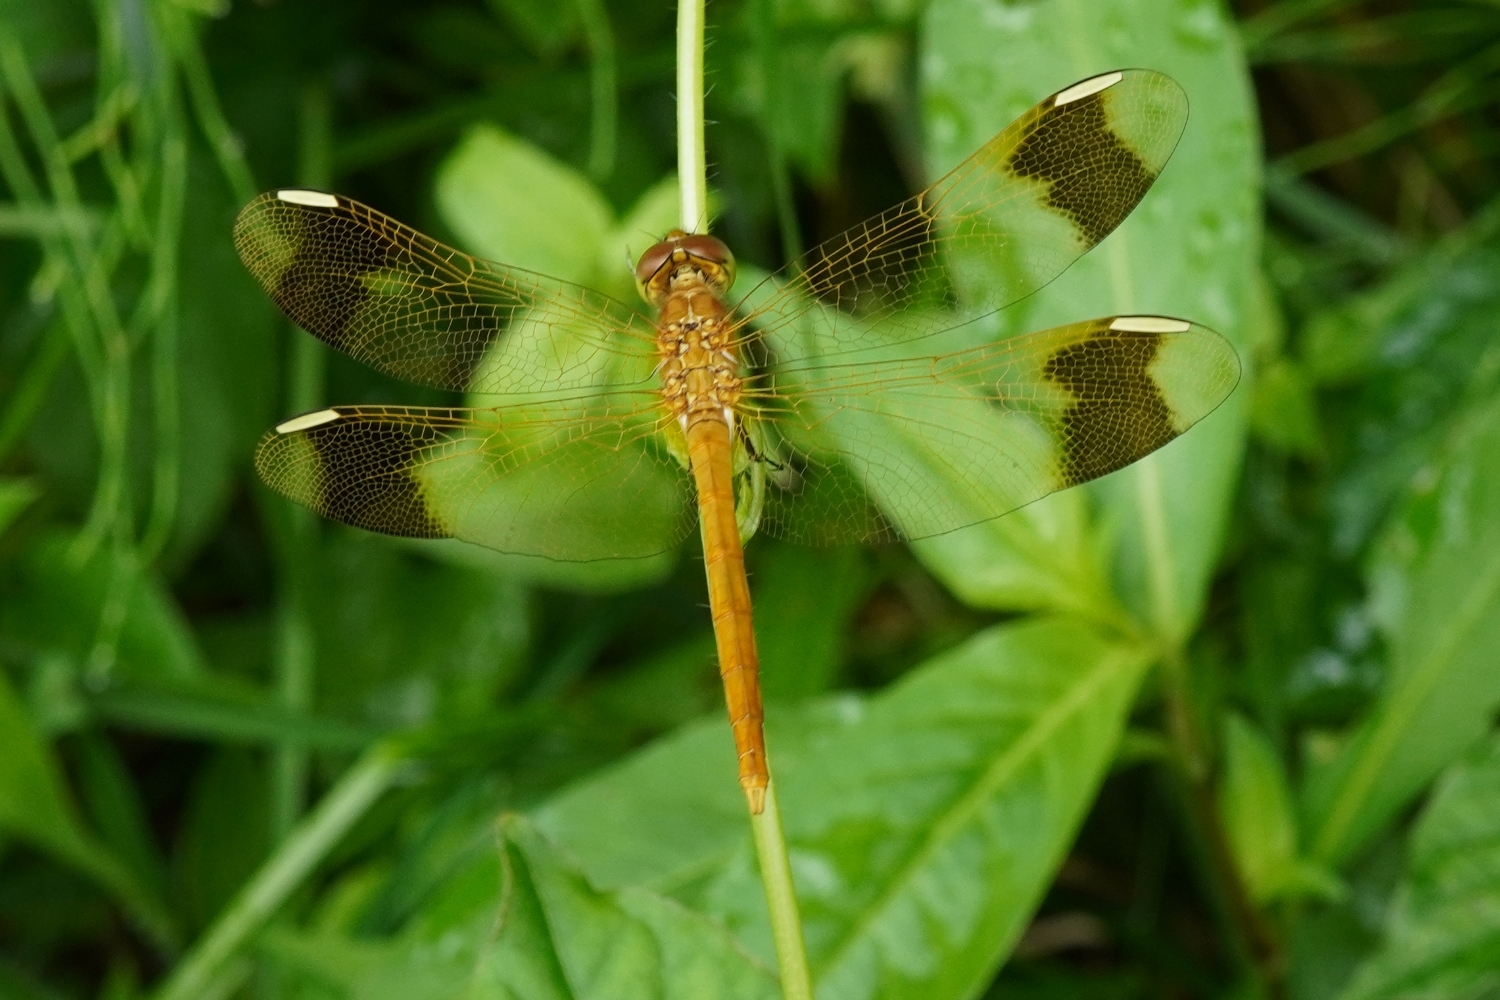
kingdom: Animalia
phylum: Arthropoda
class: Insecta
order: Odonata
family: Libellulidae
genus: Sympetrum
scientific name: Sympetrum pedemontanum
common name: Banded darter
